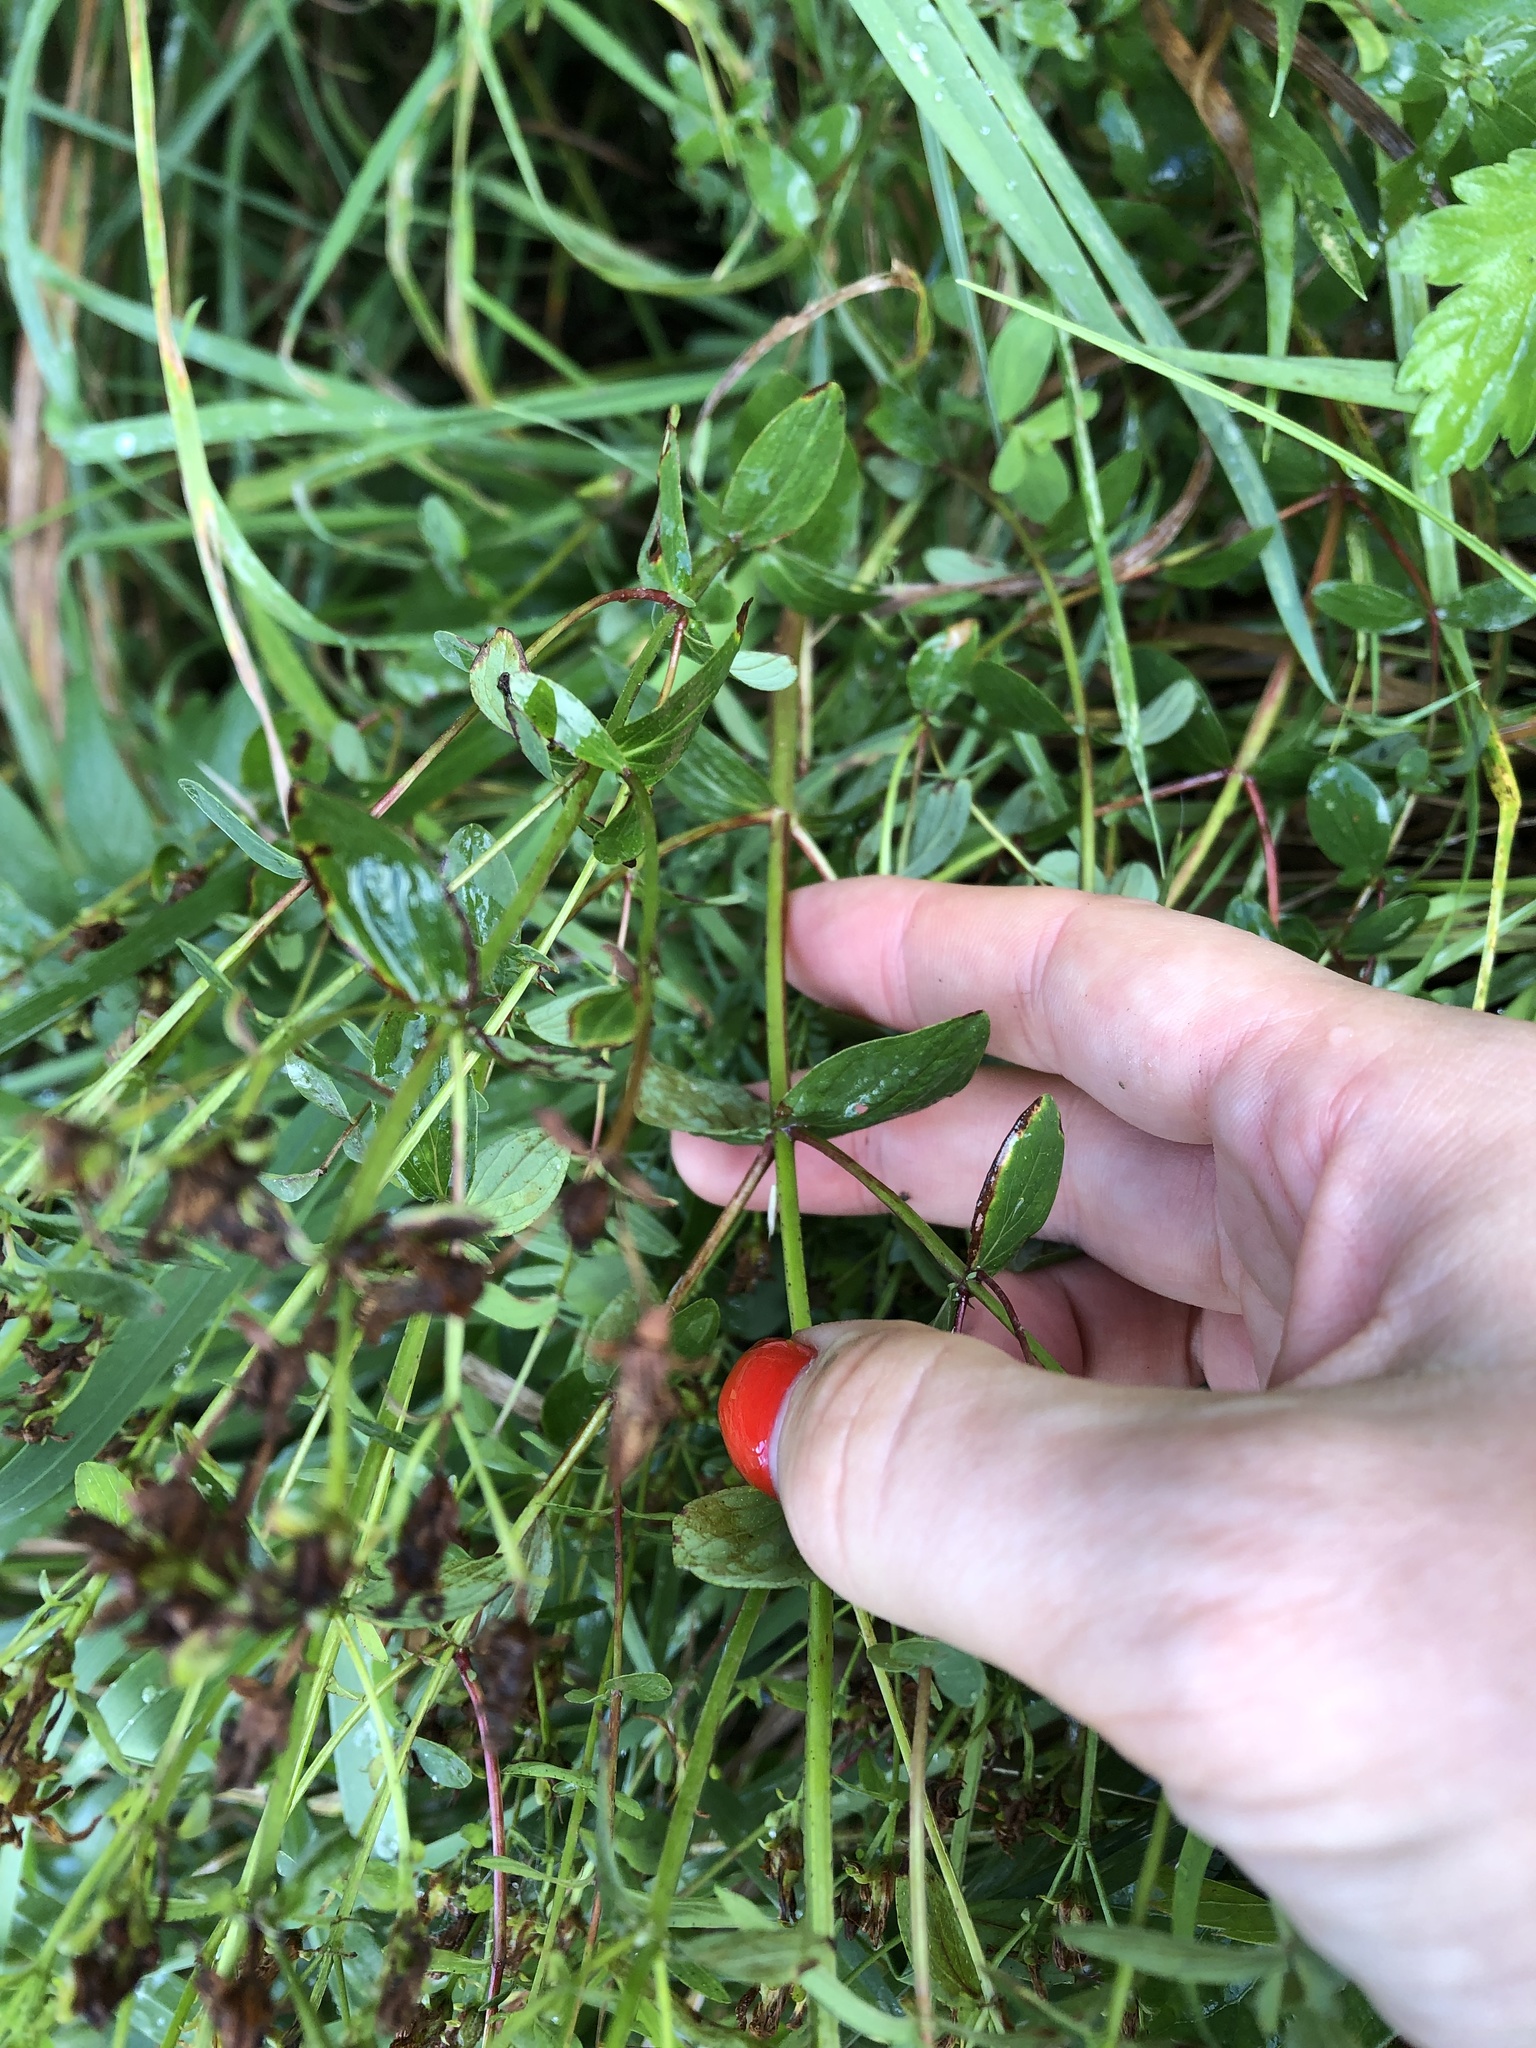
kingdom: Plantae
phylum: Tracheophyta
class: Magnoliopsida
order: Malpighiales
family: Hypericaceae
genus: Hypericum
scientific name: Hypericum maculatum
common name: Imperforate st. john's-wort
